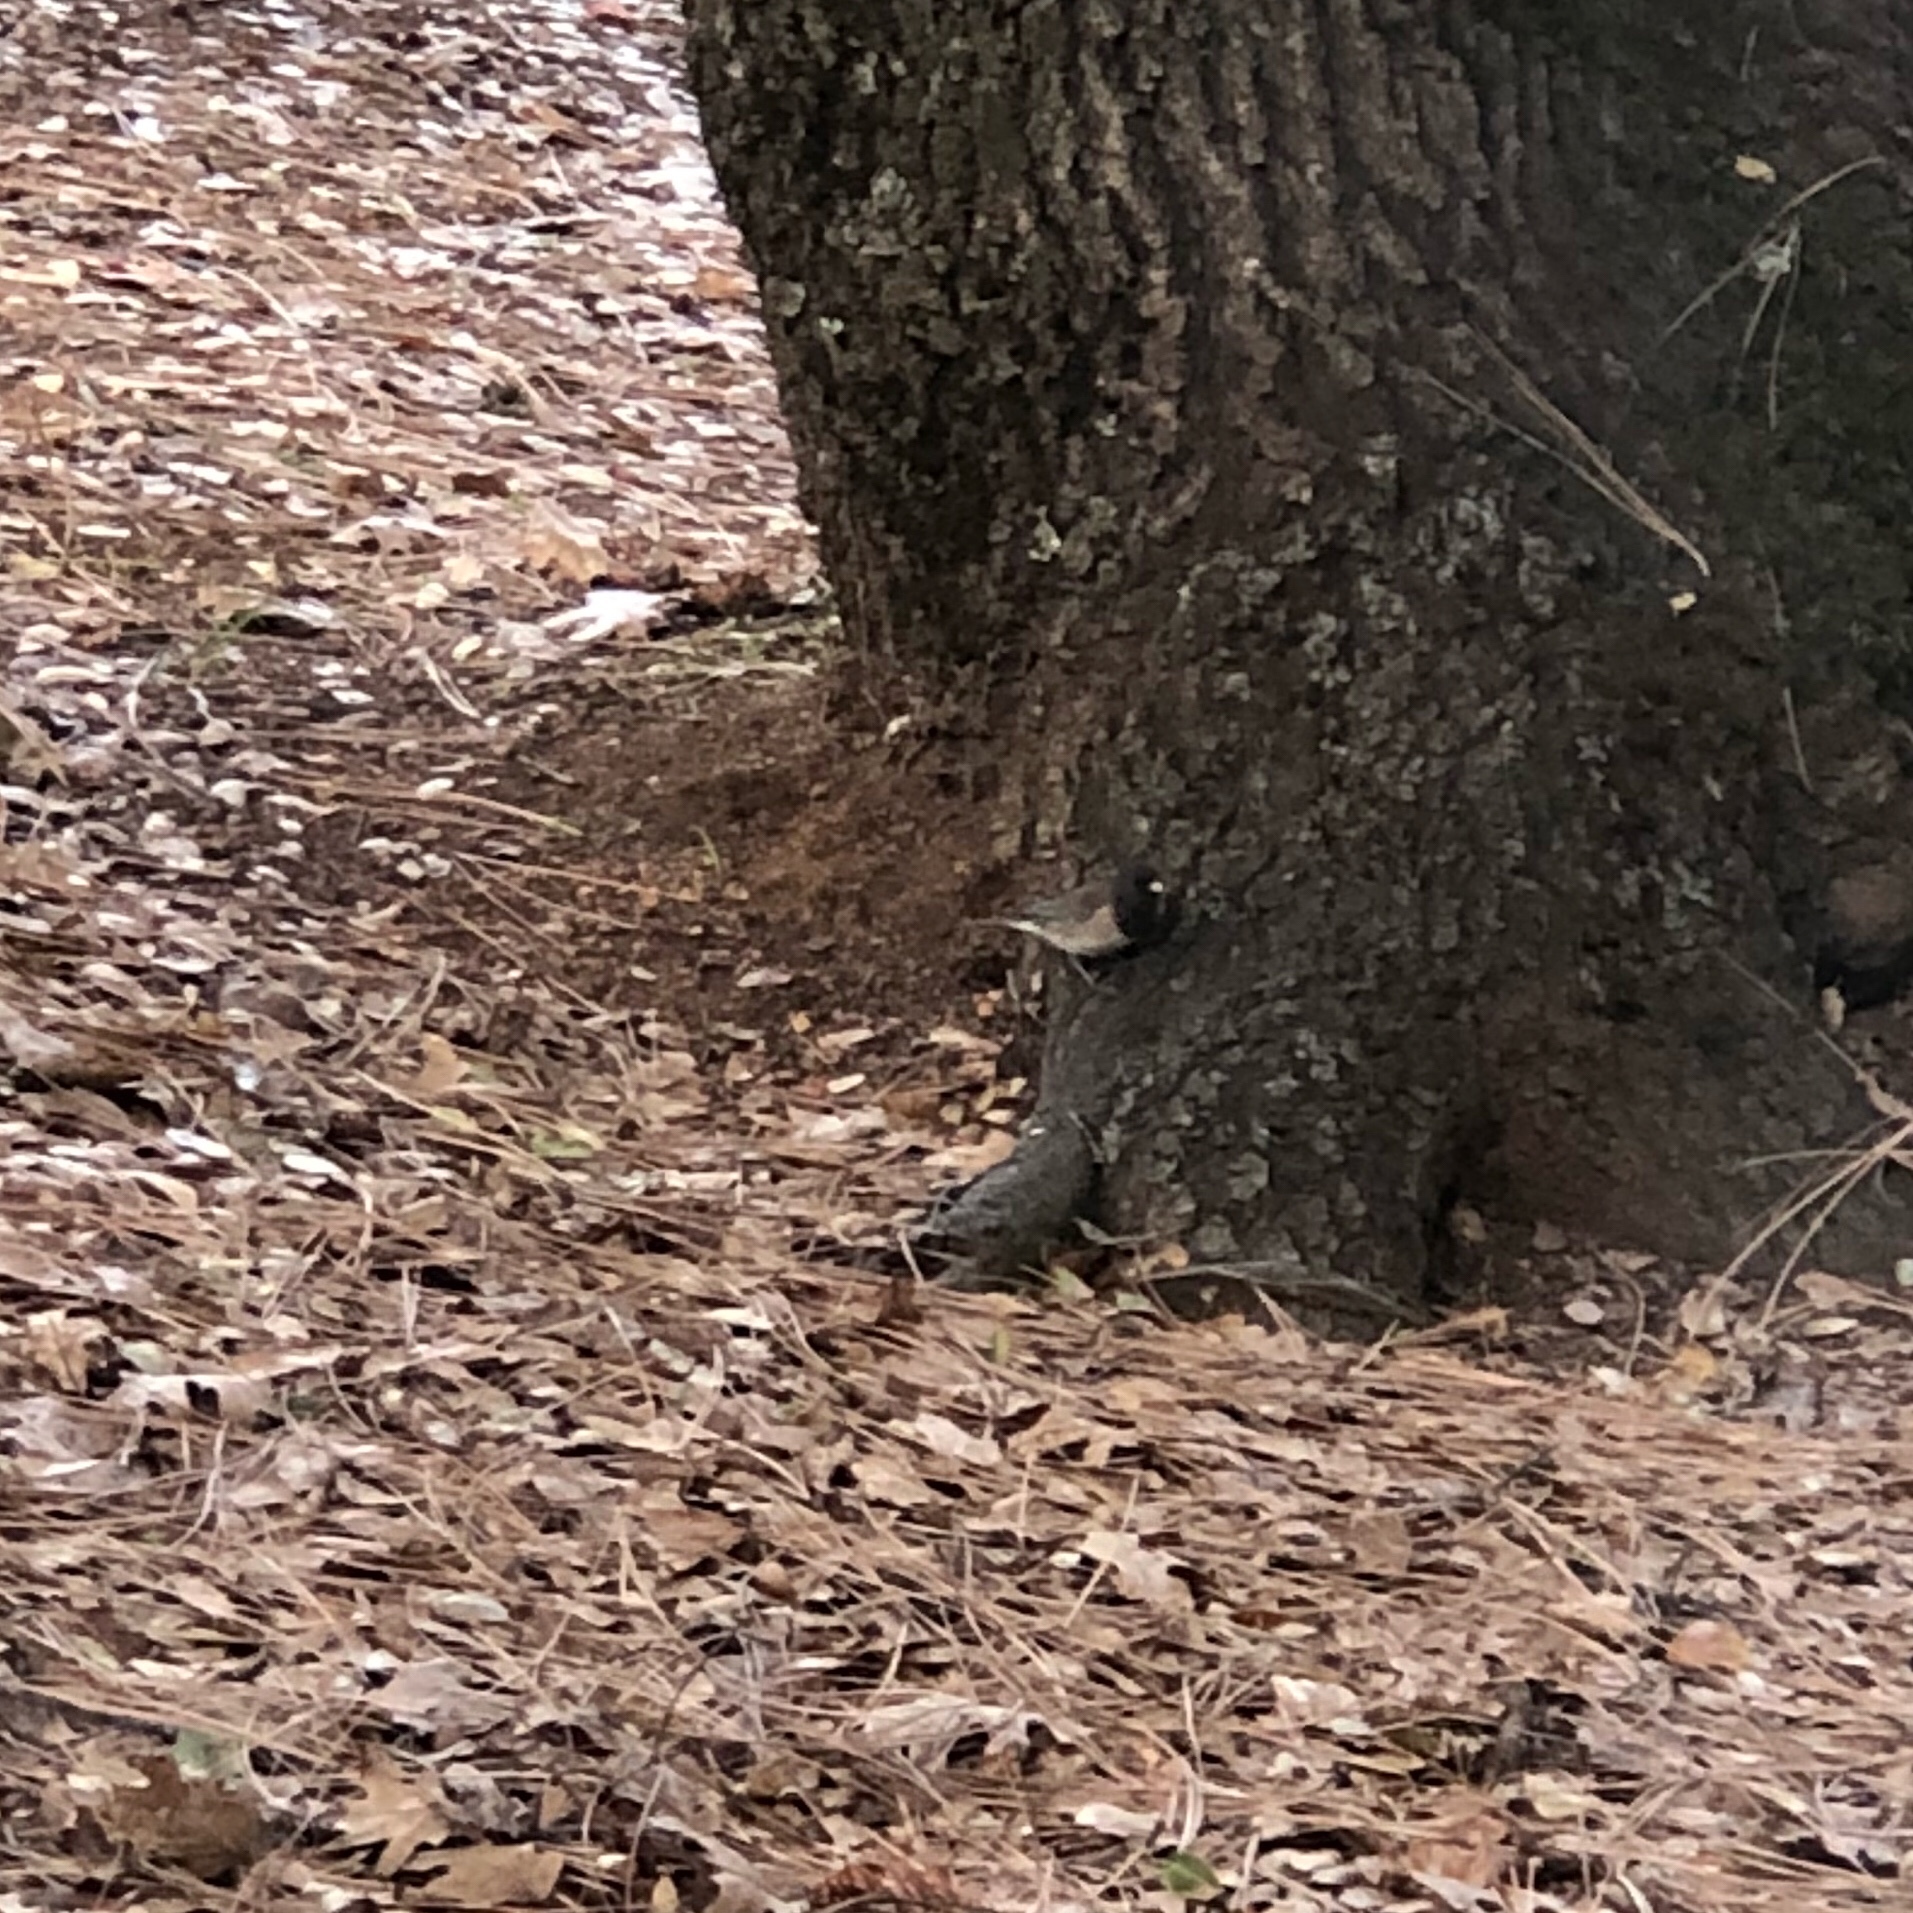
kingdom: Animalia
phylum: Chordata
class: Aves
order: Passeriformes
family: Passerellidae
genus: Junco
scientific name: Junco hyemalis
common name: Dark-eyed junco
